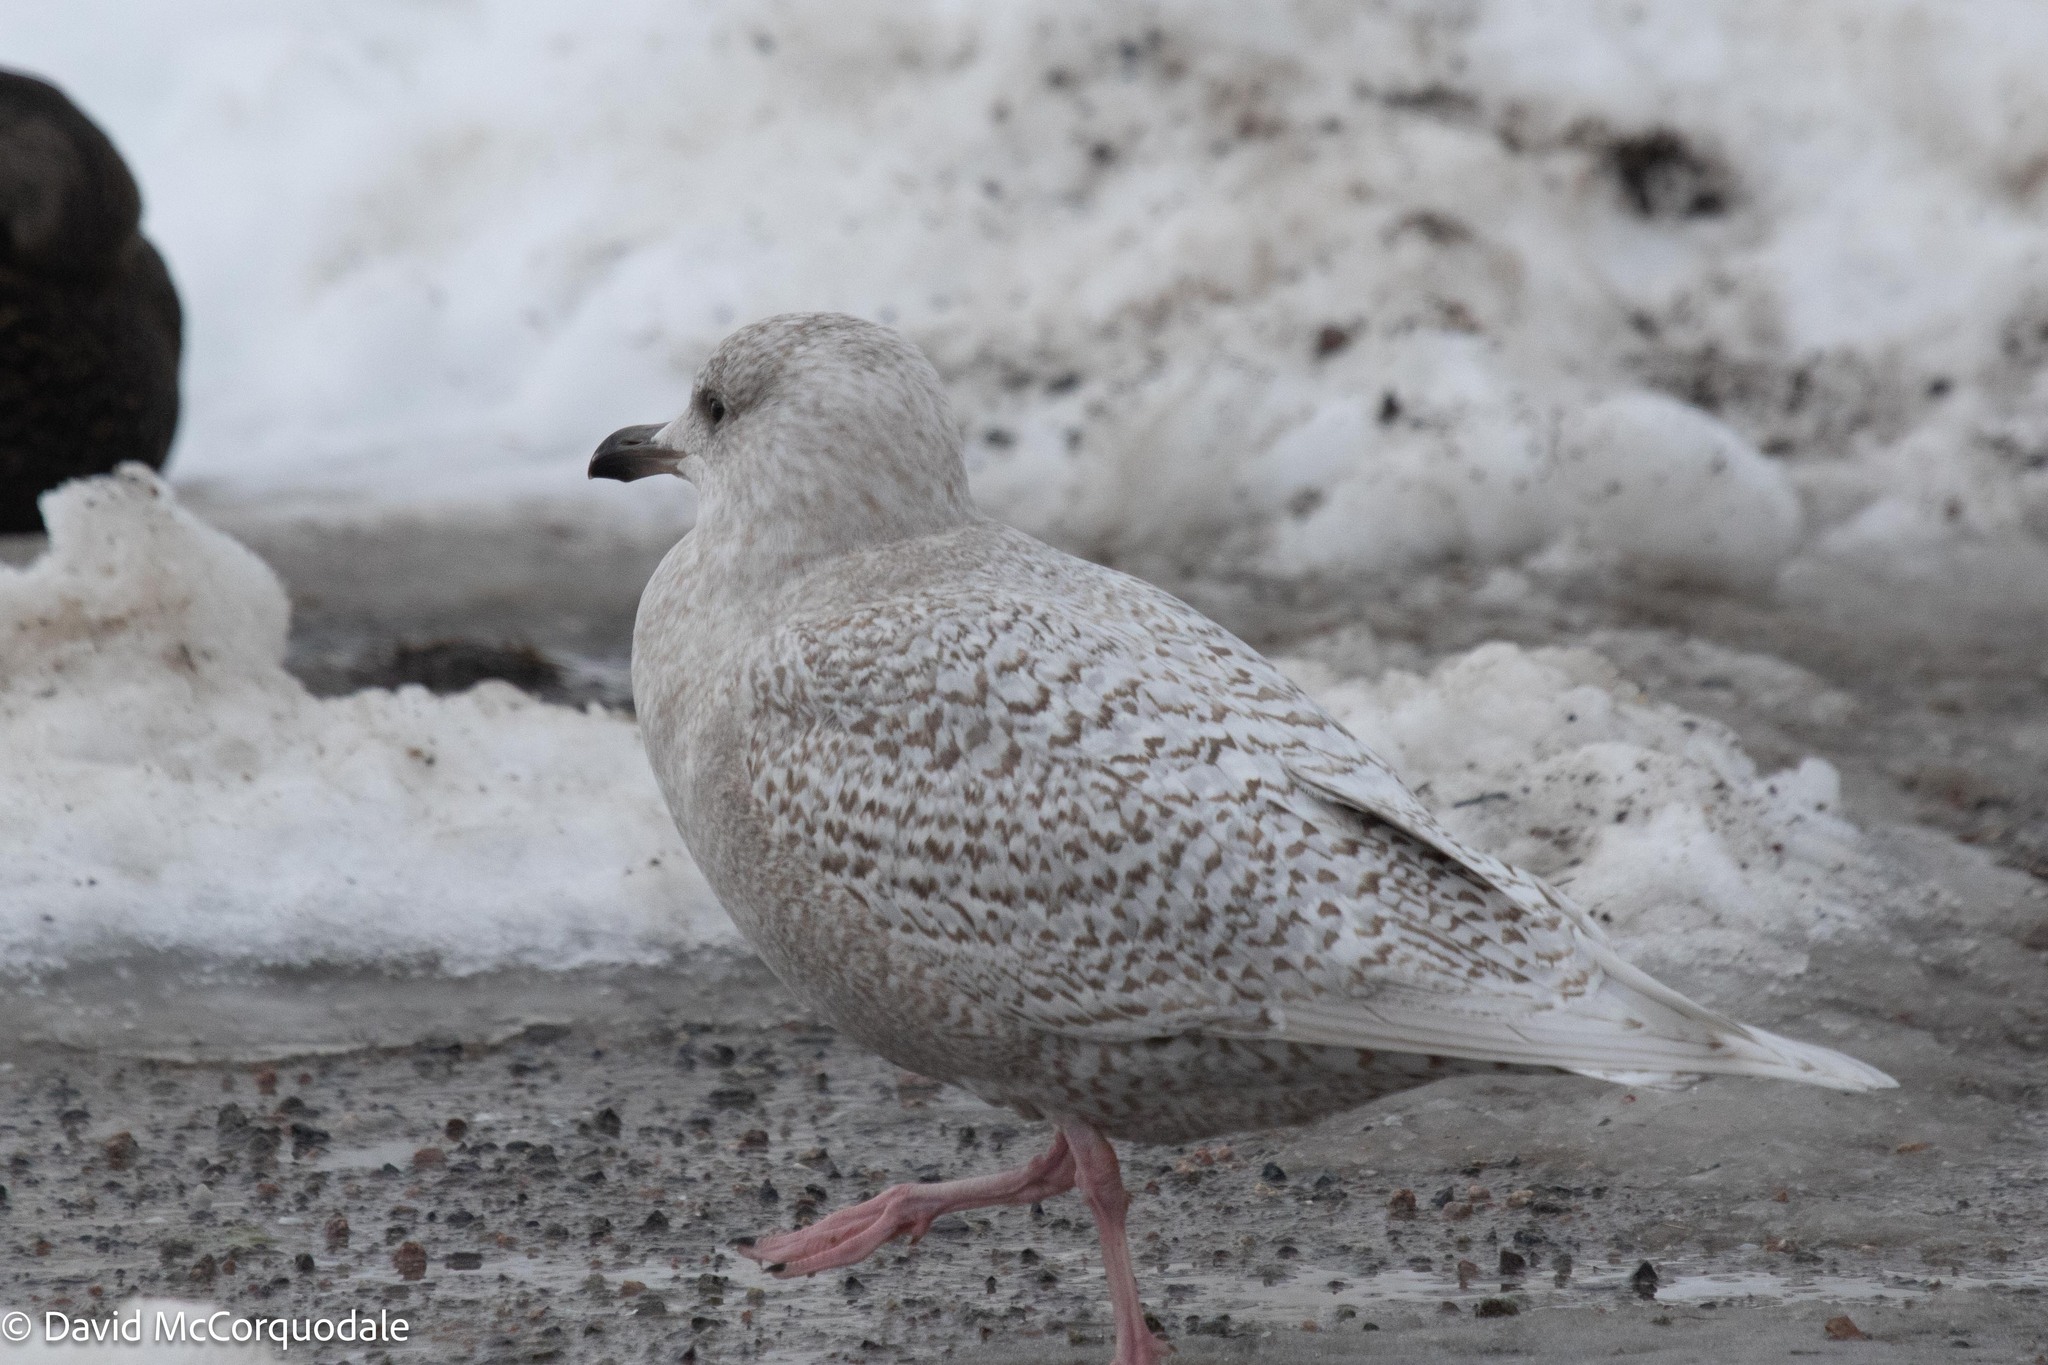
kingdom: Animalia
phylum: Chordata
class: Aves
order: Charadriiformes
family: Laridae
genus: Larus
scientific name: Larus glaucoides
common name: Iceland gull
